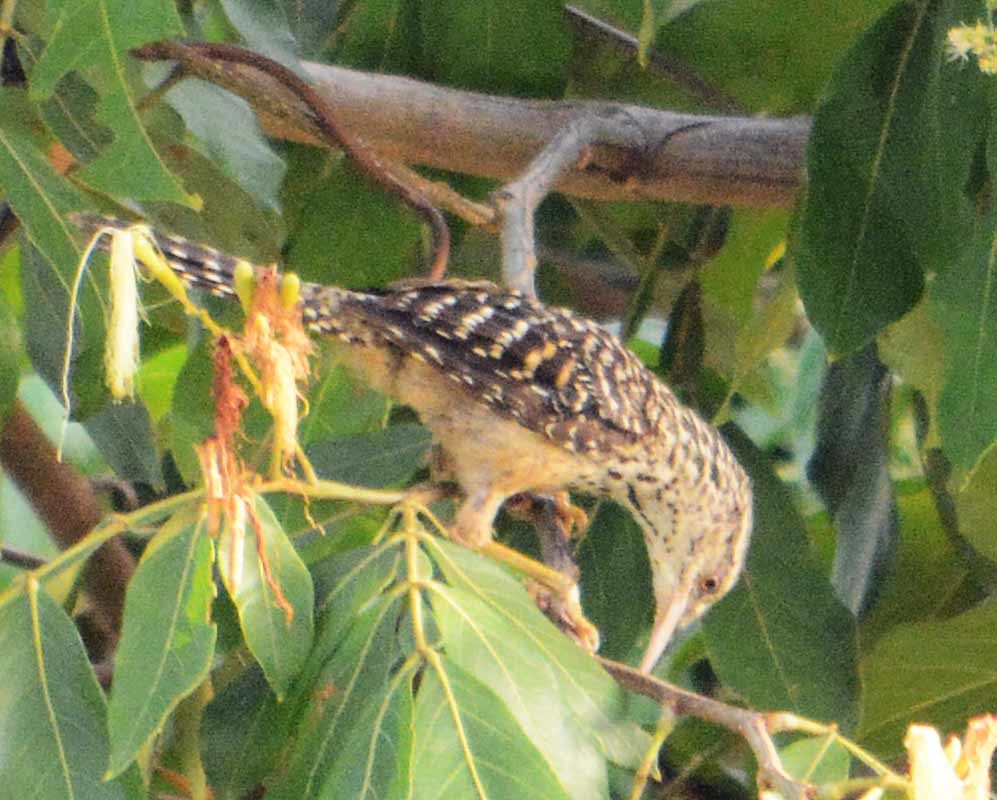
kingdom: Animalia
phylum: Chordata
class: Aves
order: Passeriformes
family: Troglodytidae
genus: Campylorhynchus
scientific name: Campylorhynchus zonatus
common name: Band-backed wren
